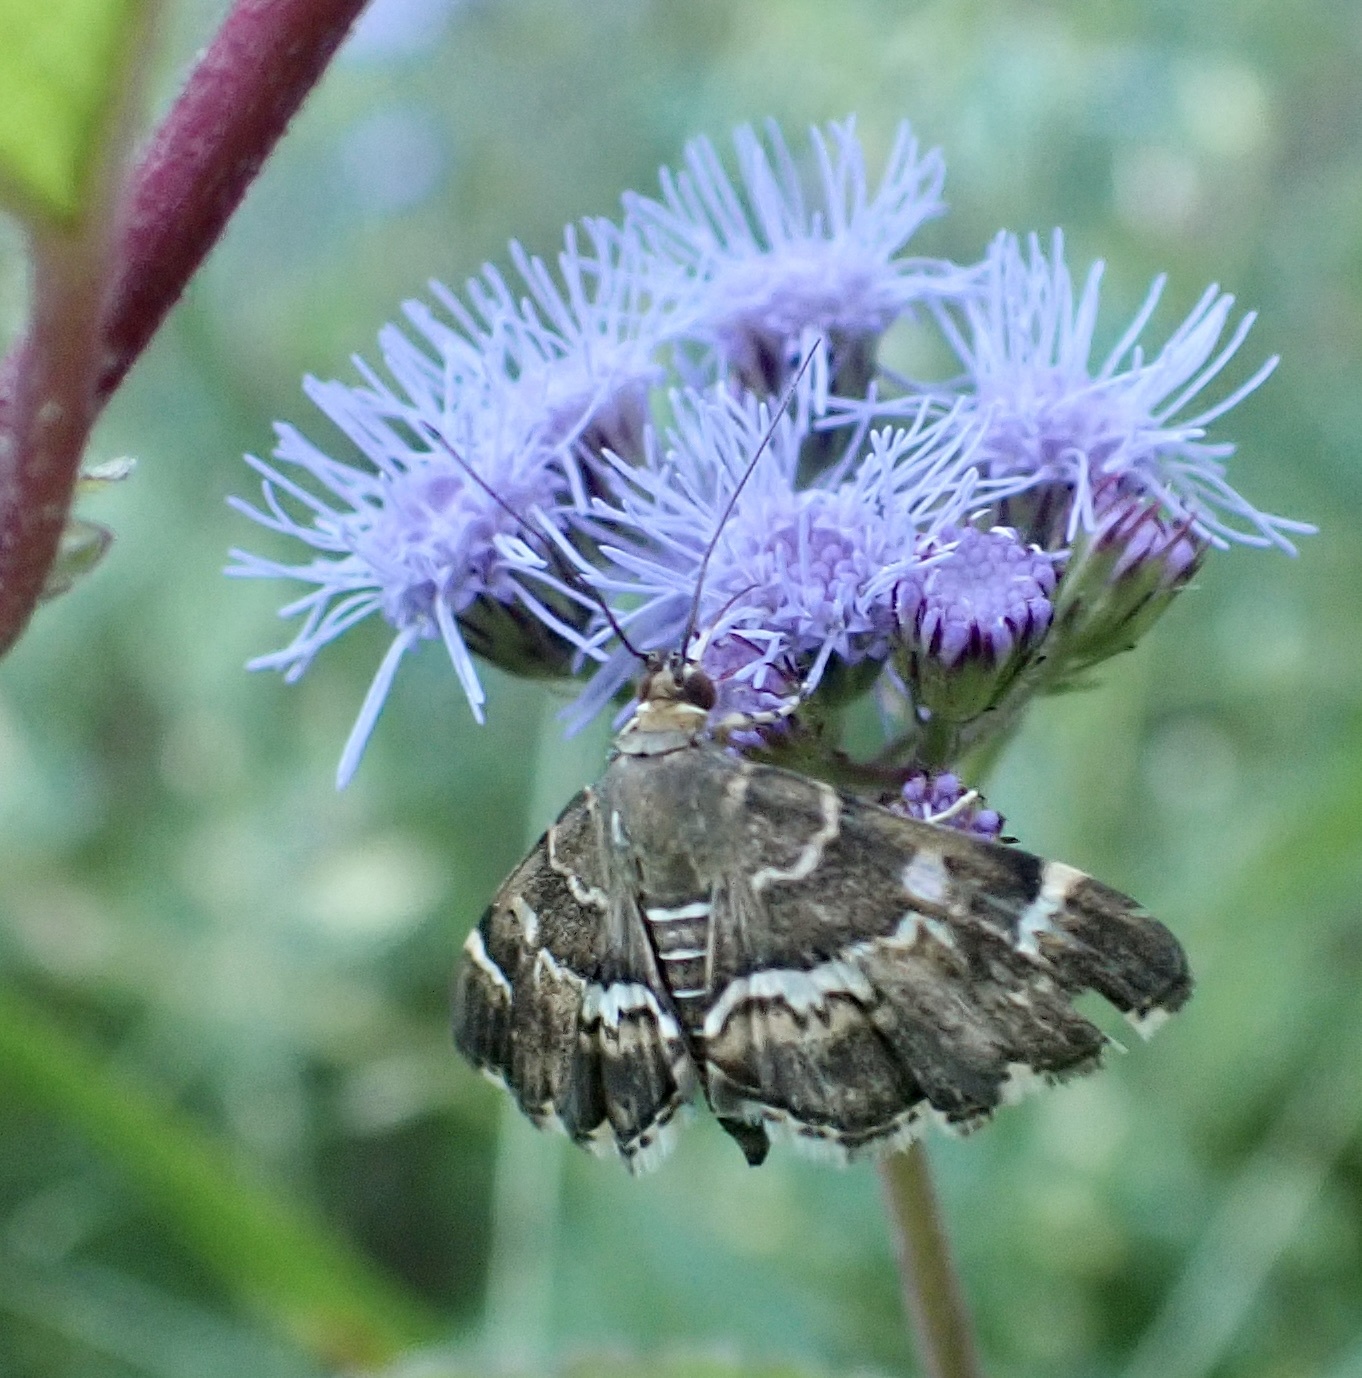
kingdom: Animalia
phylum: Arthropoda
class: Insecta
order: Lepidoptera
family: Crambidae
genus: Hymenia
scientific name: Hymenia perspectalis
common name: Spotted beet webworm
